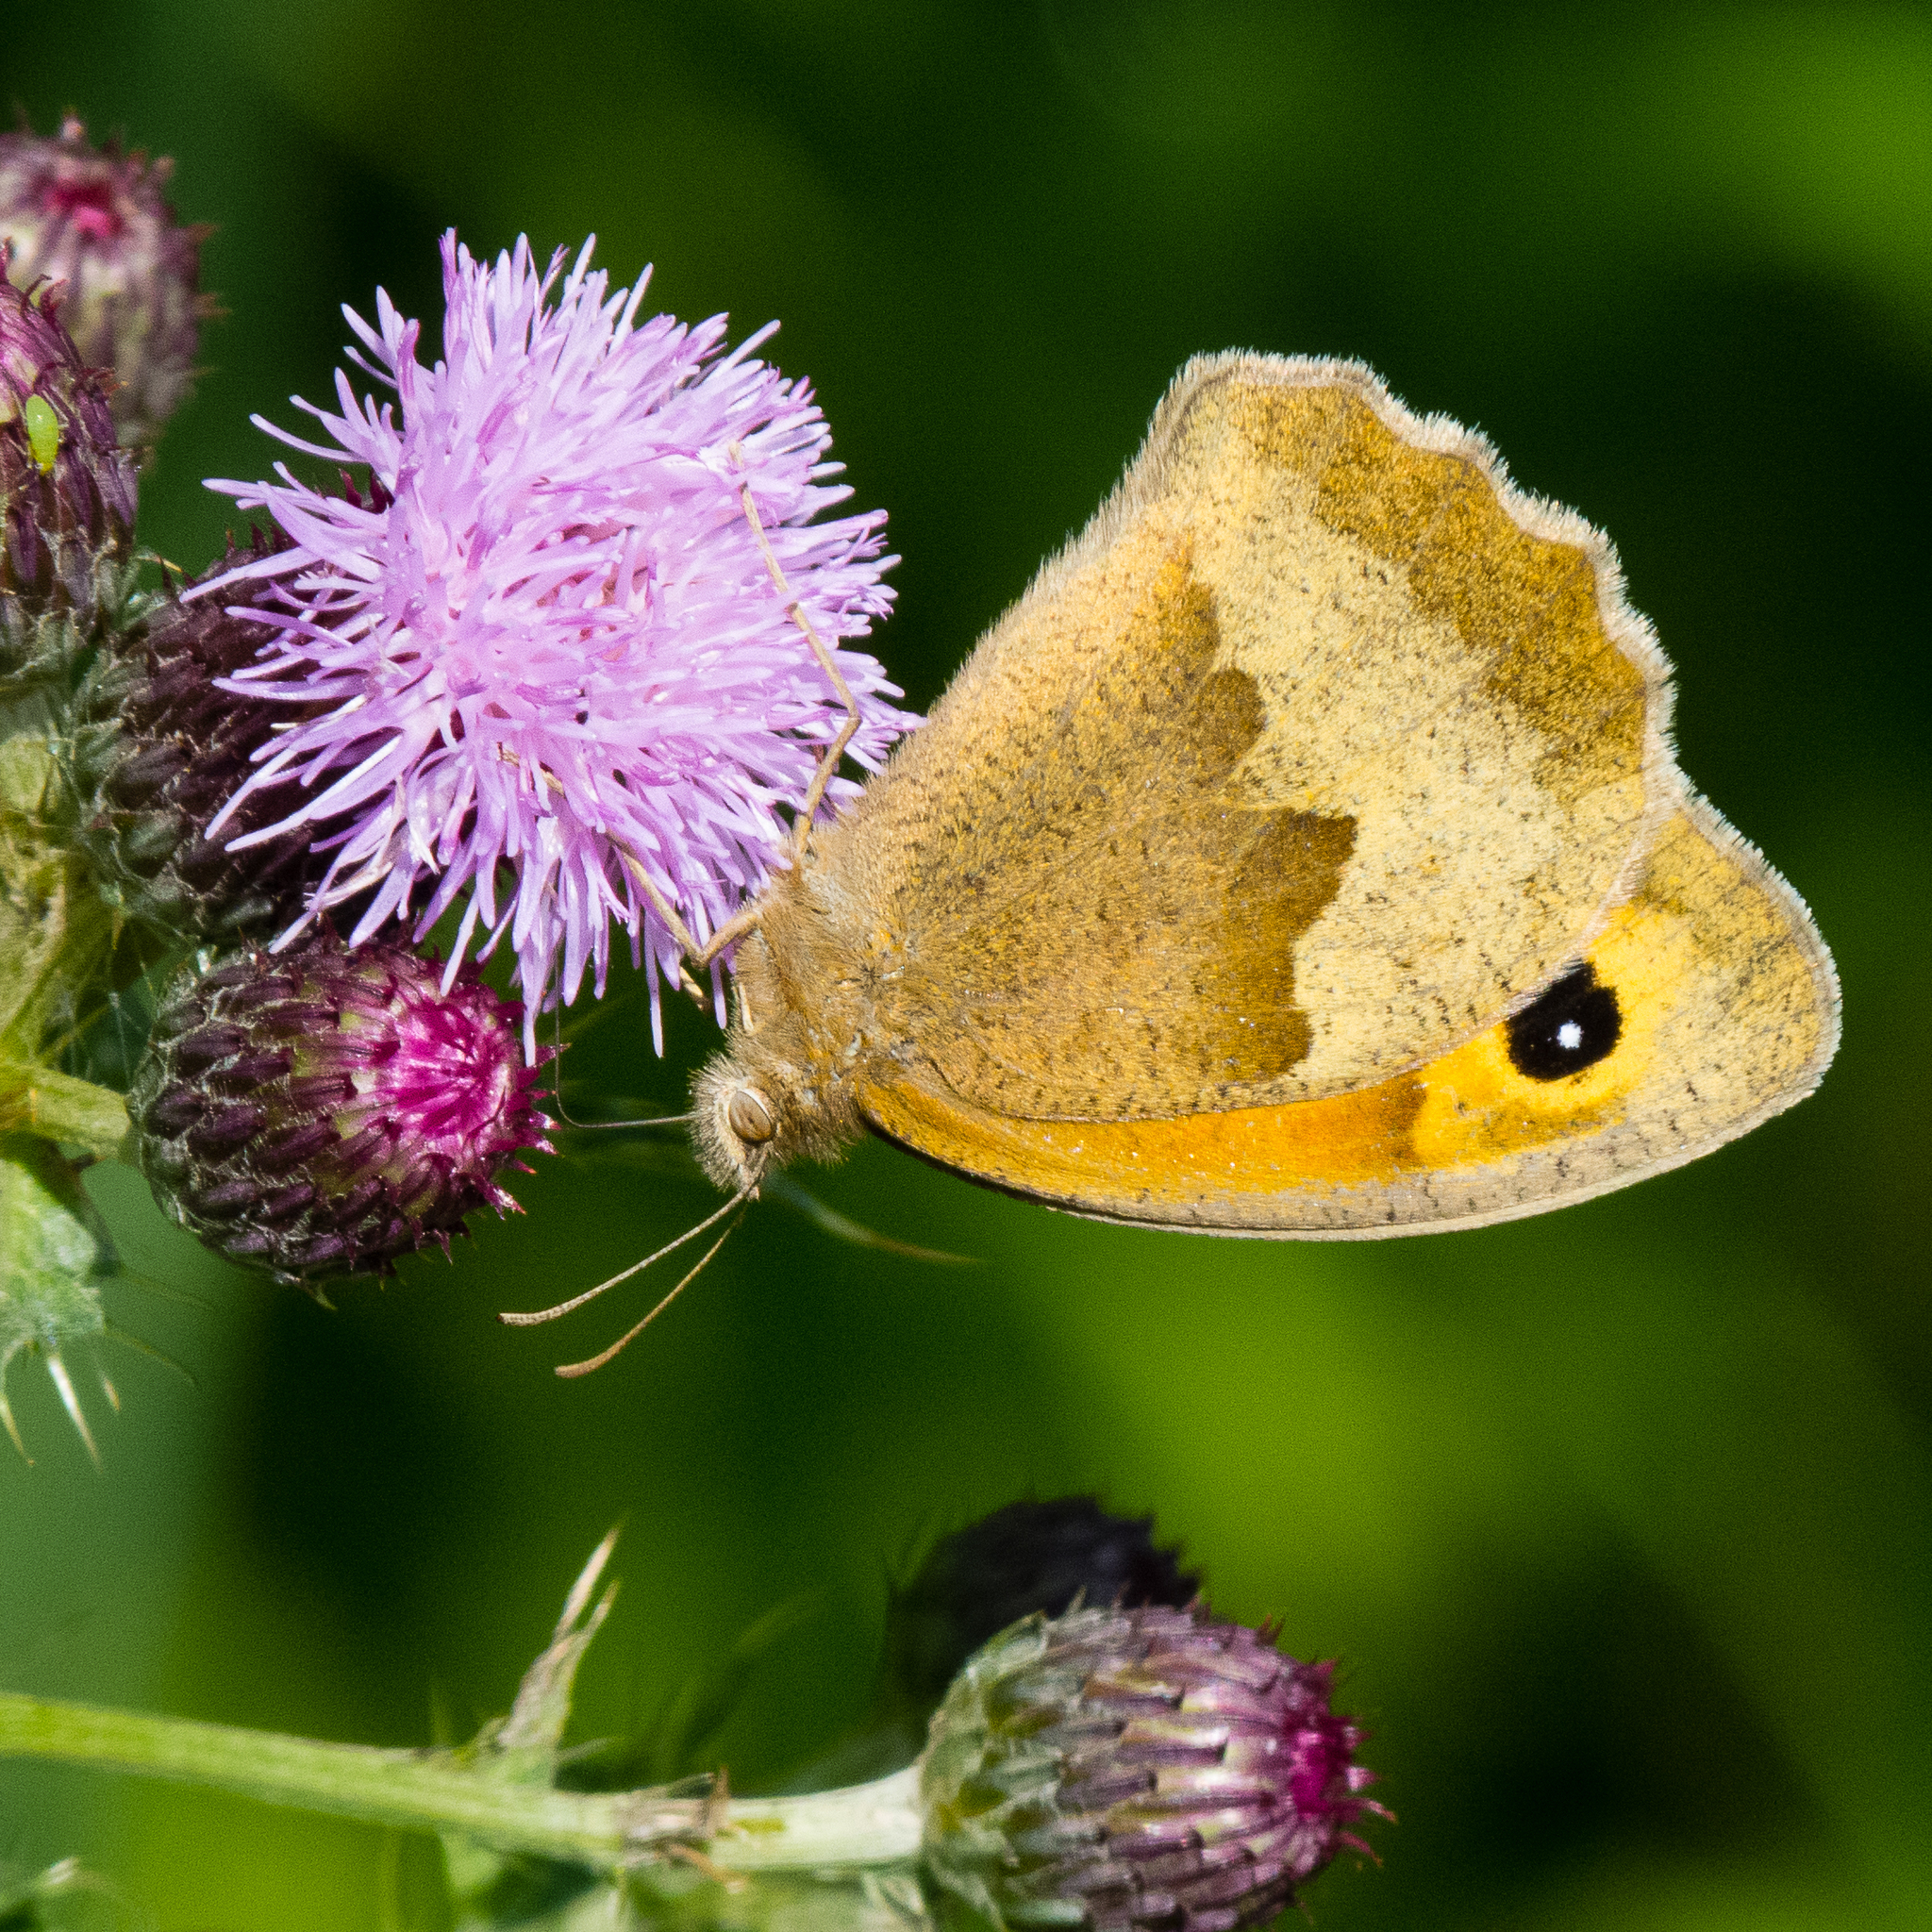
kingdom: Animalia
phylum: Arthropoda
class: Insecta
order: Lepidoptera
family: Nymphalidae
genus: Maniola
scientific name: Maniola jurtina
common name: Meadow brown
